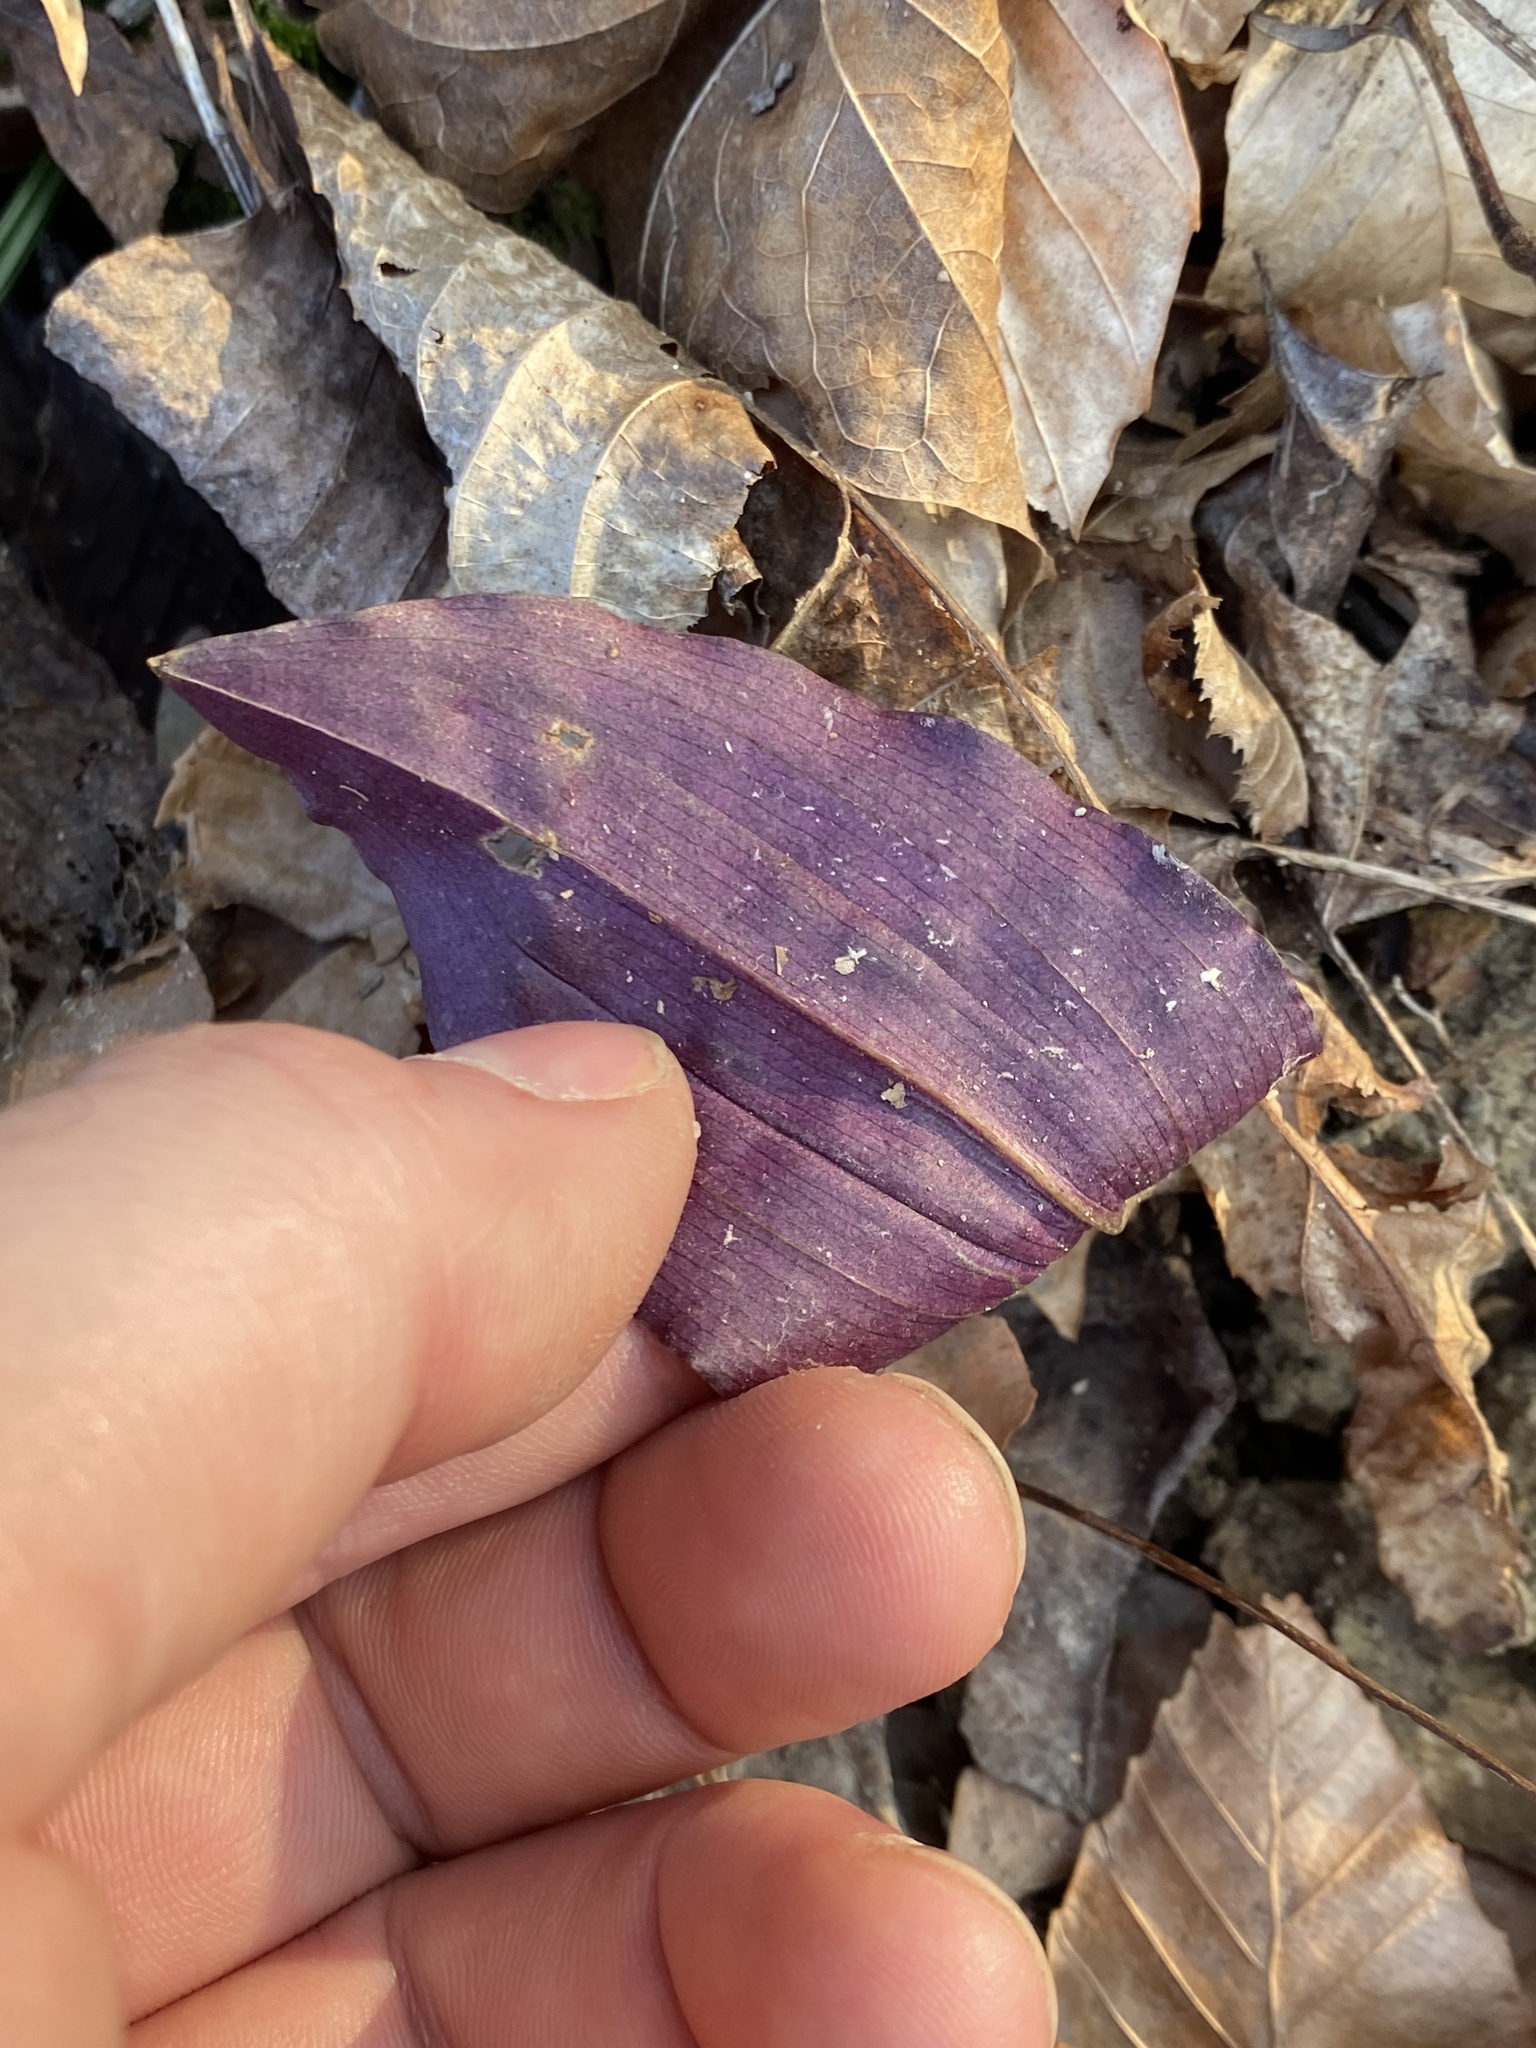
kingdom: Plantae
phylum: Tracheophyta
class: Liliopsida
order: Asparagales
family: Orchidaceae
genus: Tipularia
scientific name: Tipularia discolor
